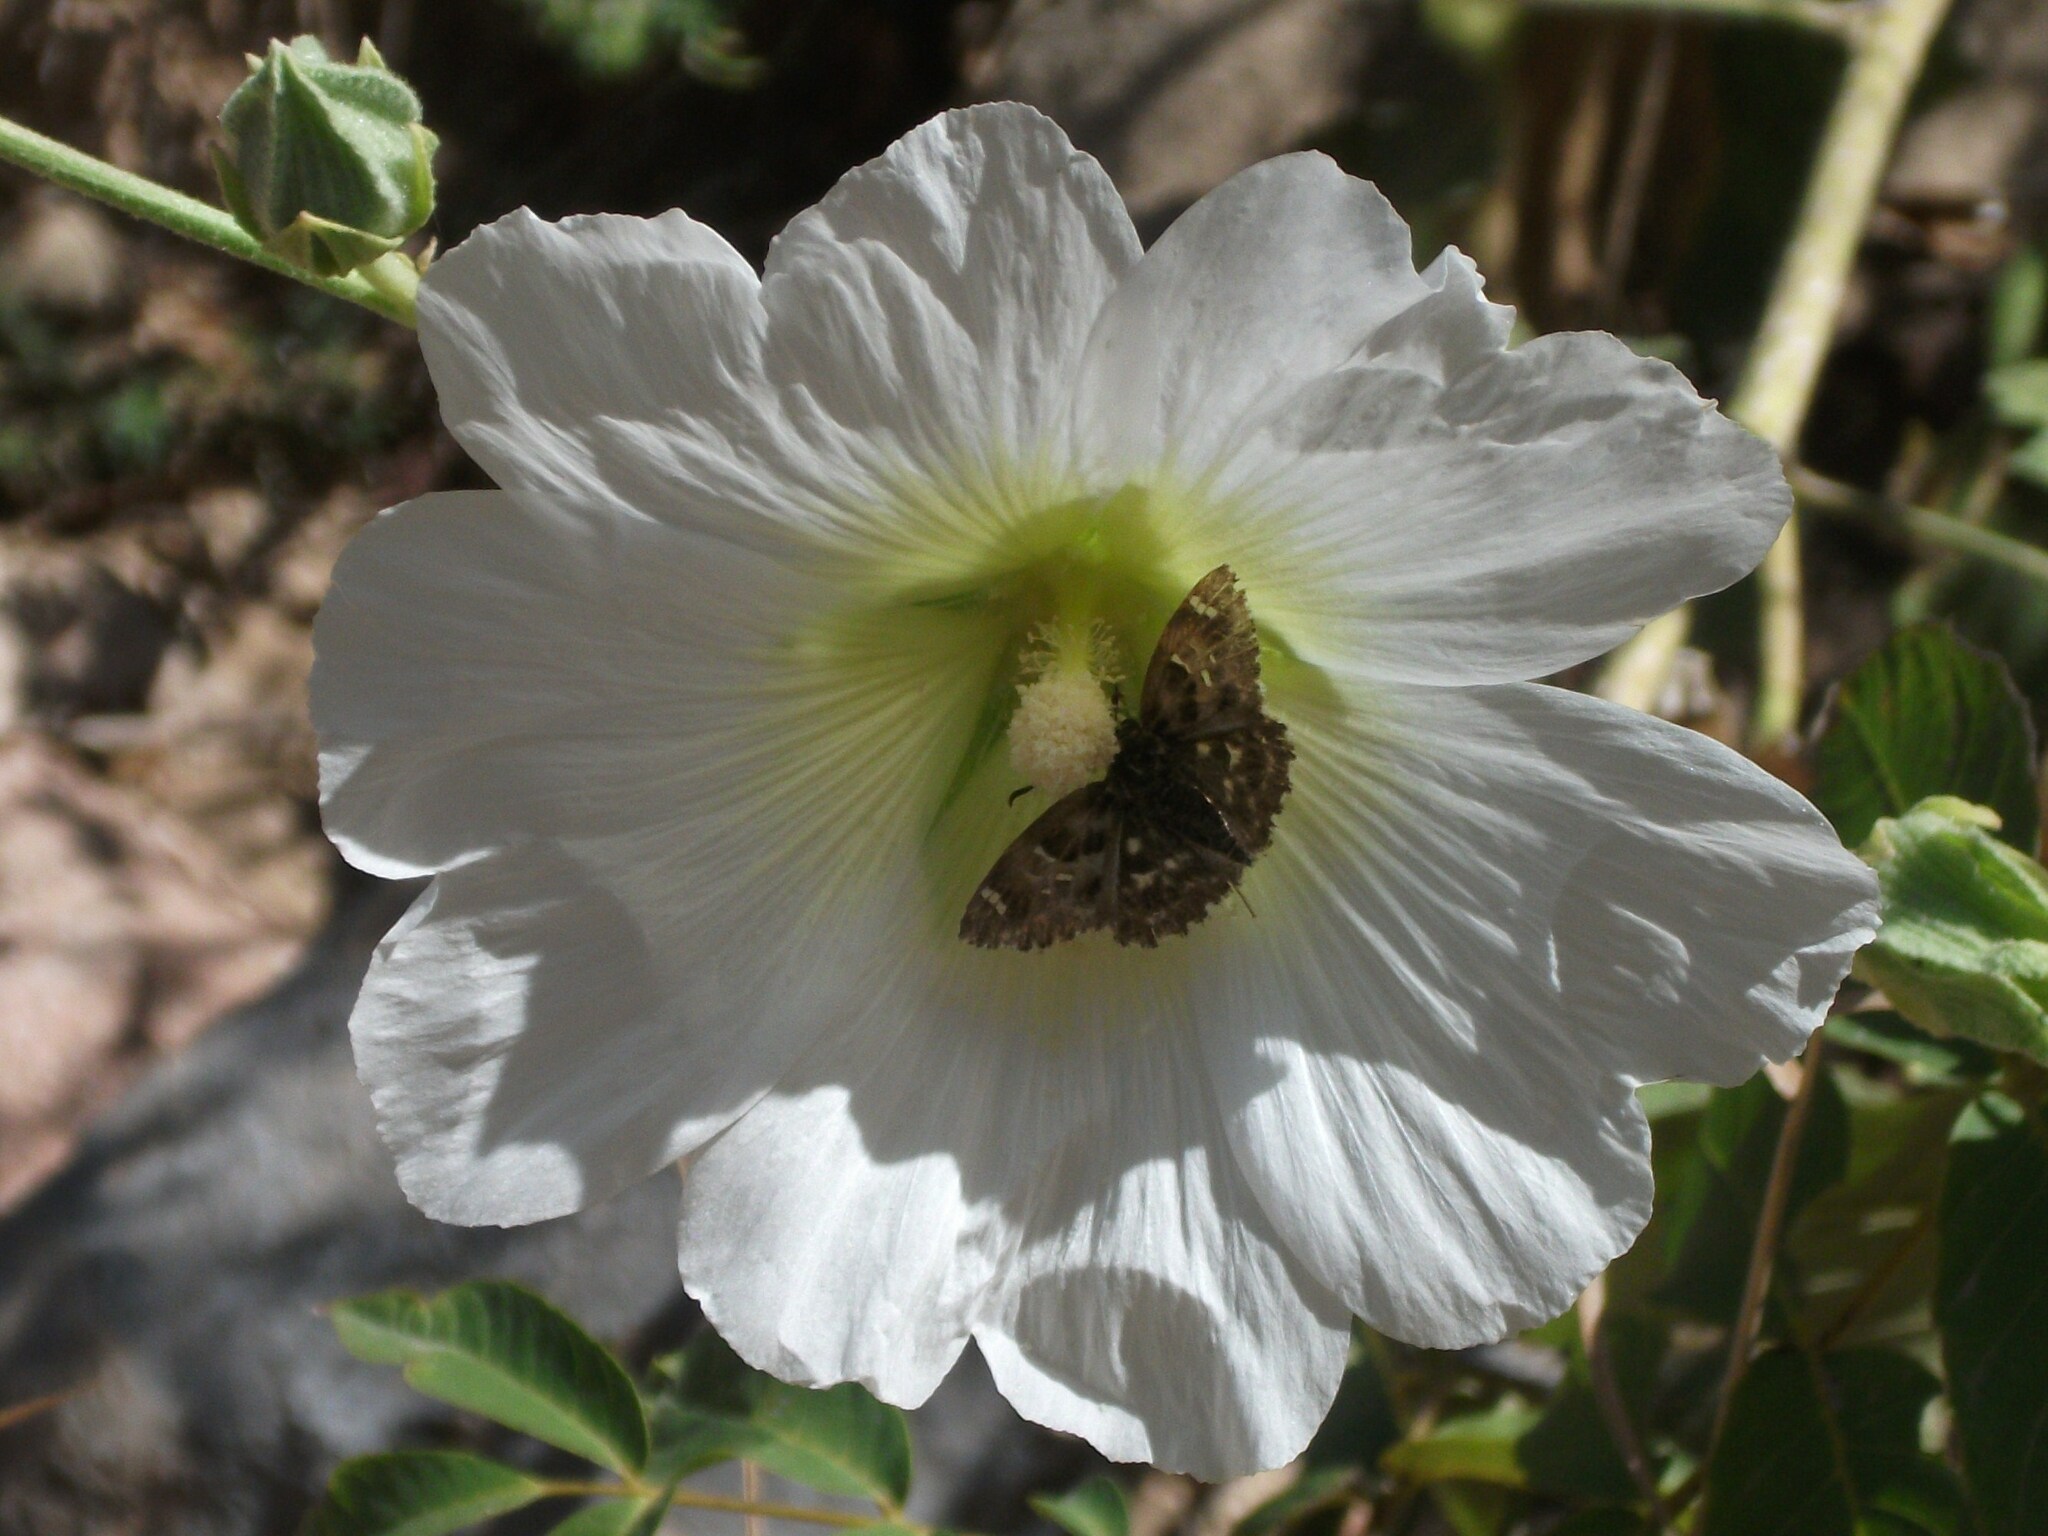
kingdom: Animalia
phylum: Arthropoda
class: Insecta
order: Lepidoptera
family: Hesperiidae
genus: Carcharodus
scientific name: Carcharodus alceae
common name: Mallow skipper
